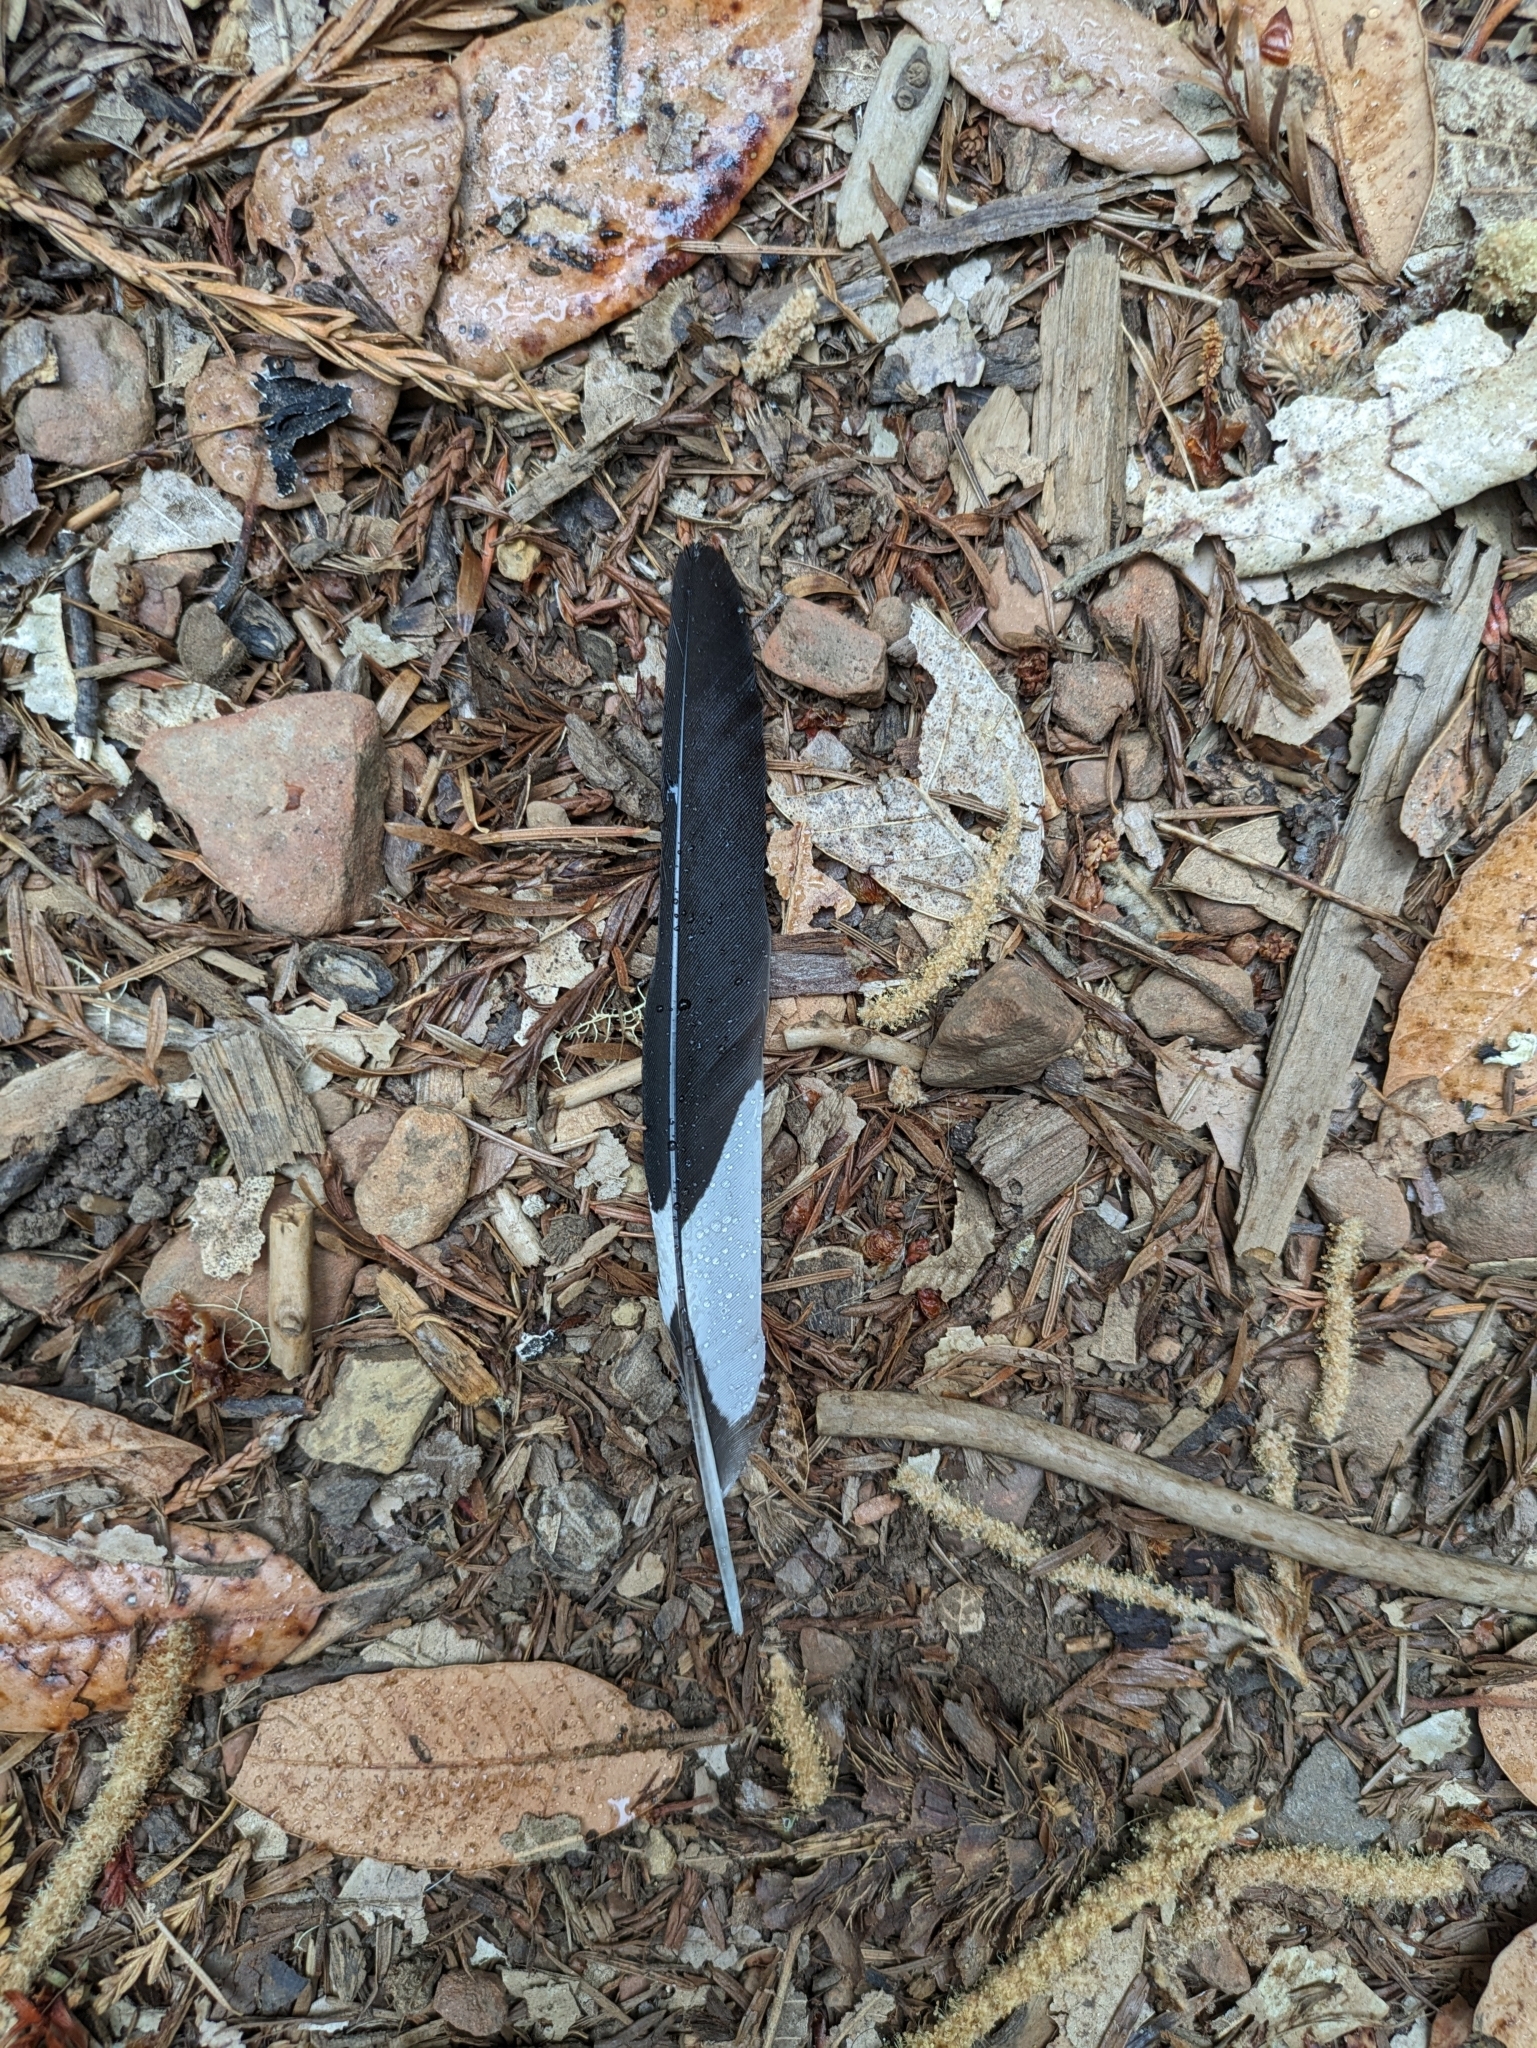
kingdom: Animalia
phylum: Chordata
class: Aves
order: Piciformes
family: Picidae
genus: Melanerpes
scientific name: Melanerpes formicivorus
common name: Acorn woodpecker
